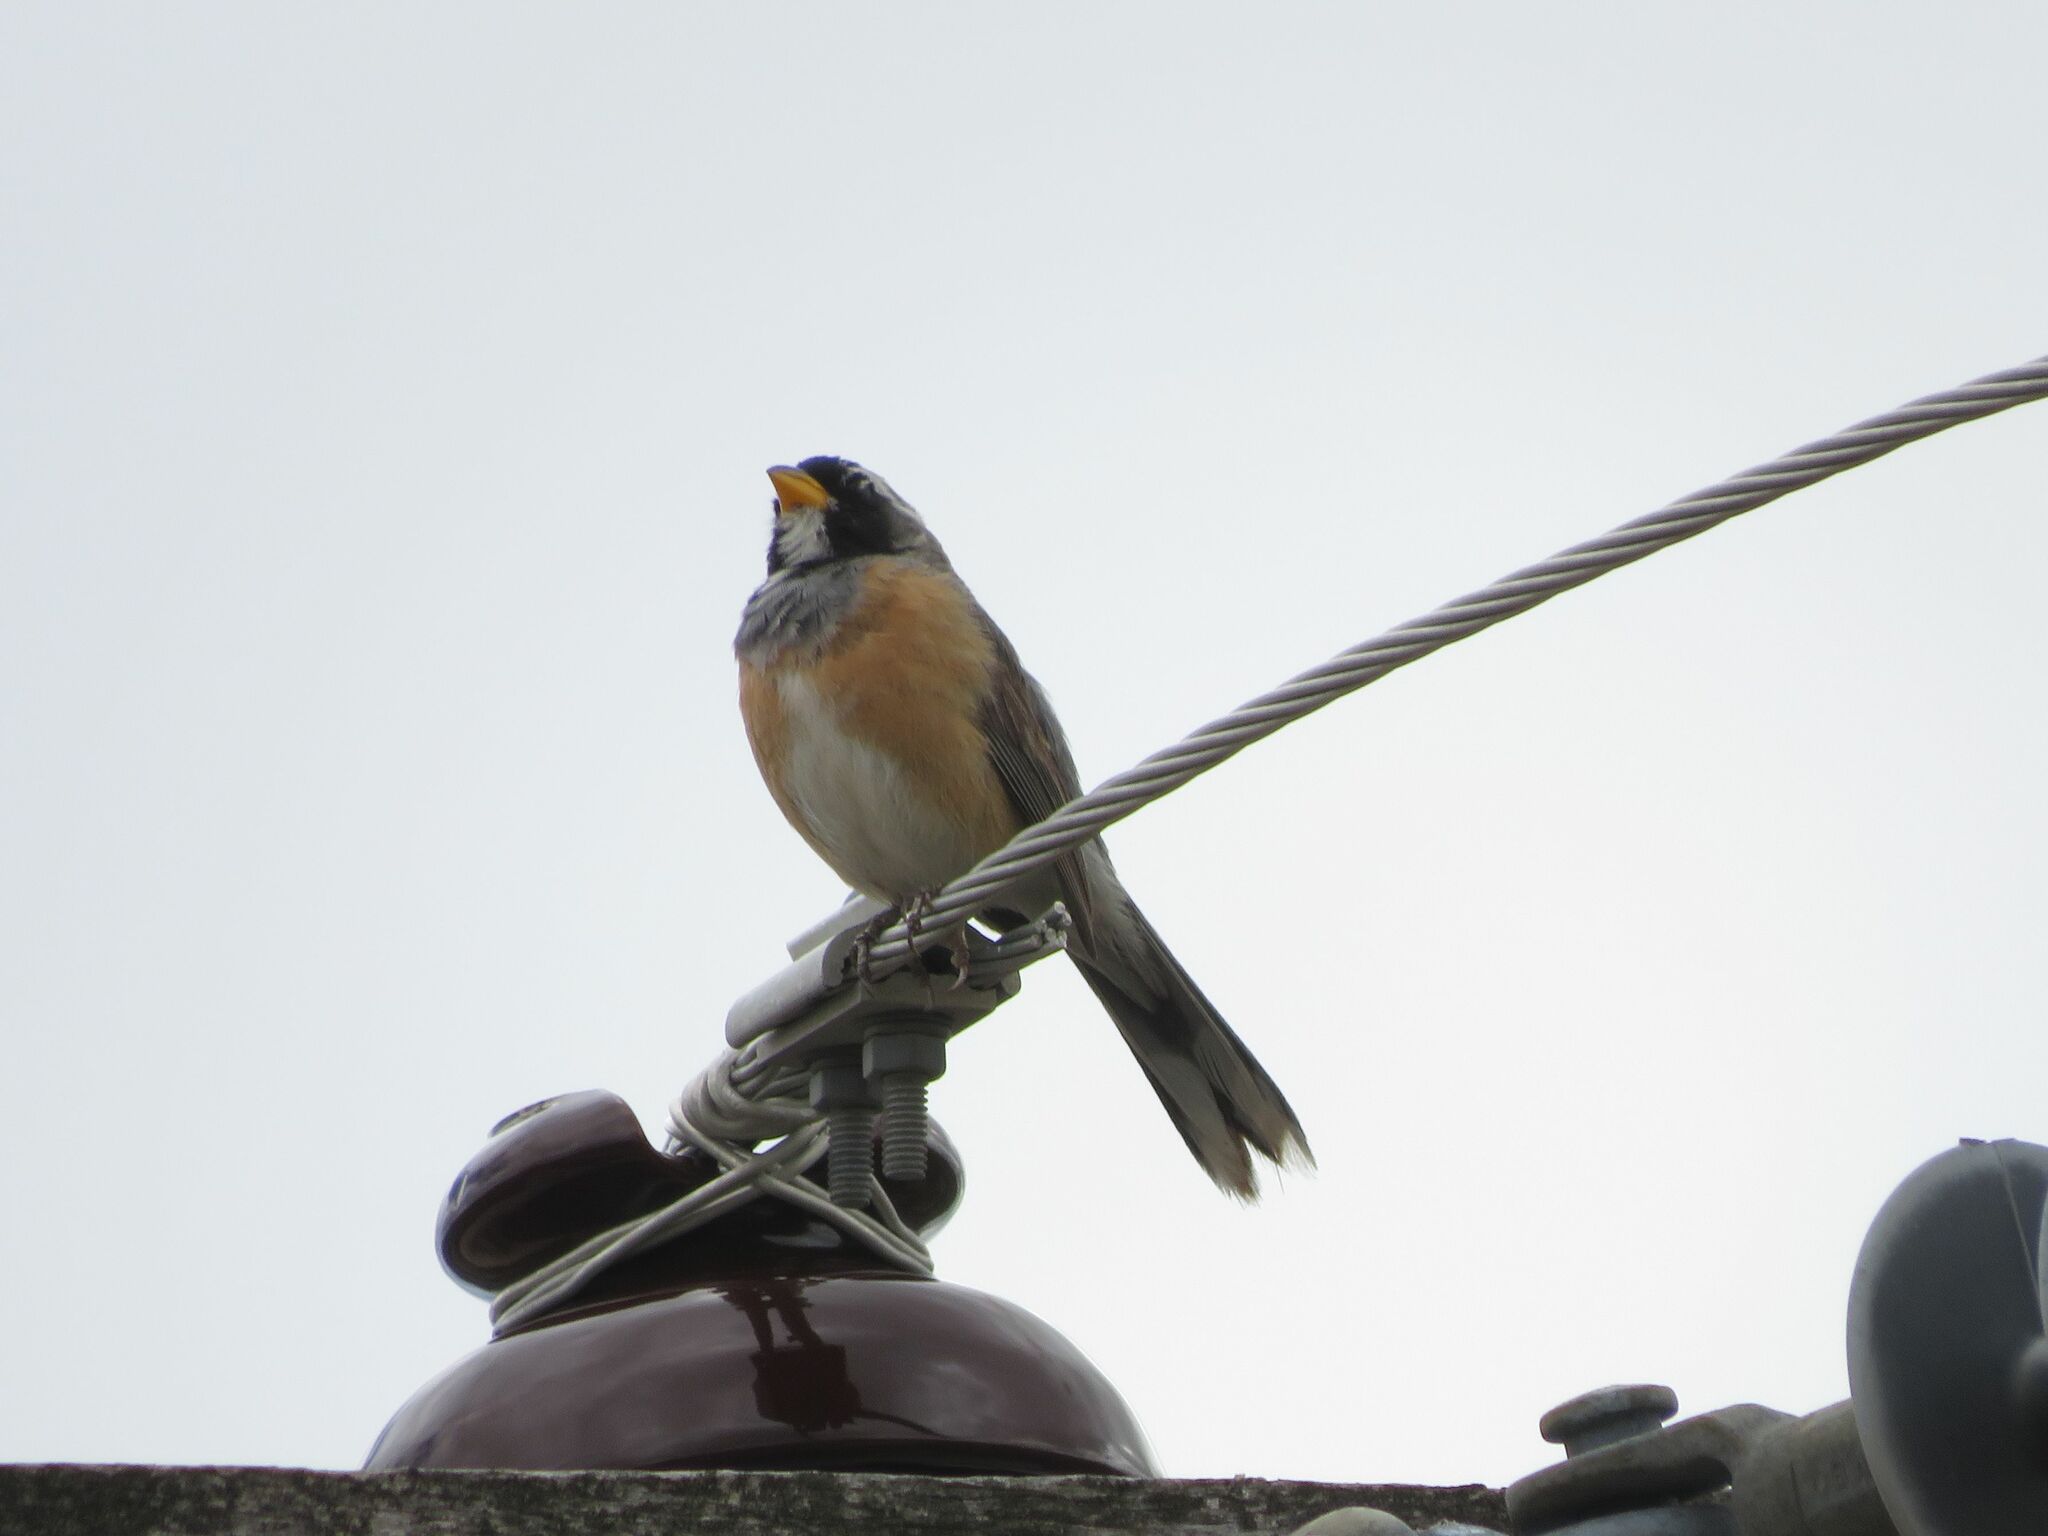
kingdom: Animalia
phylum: Chordata
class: Aves
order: Passeriformes
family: Thraupidae
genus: Saltatricula
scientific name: Saltatricula multicolor
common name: Many-colored chaco finch
